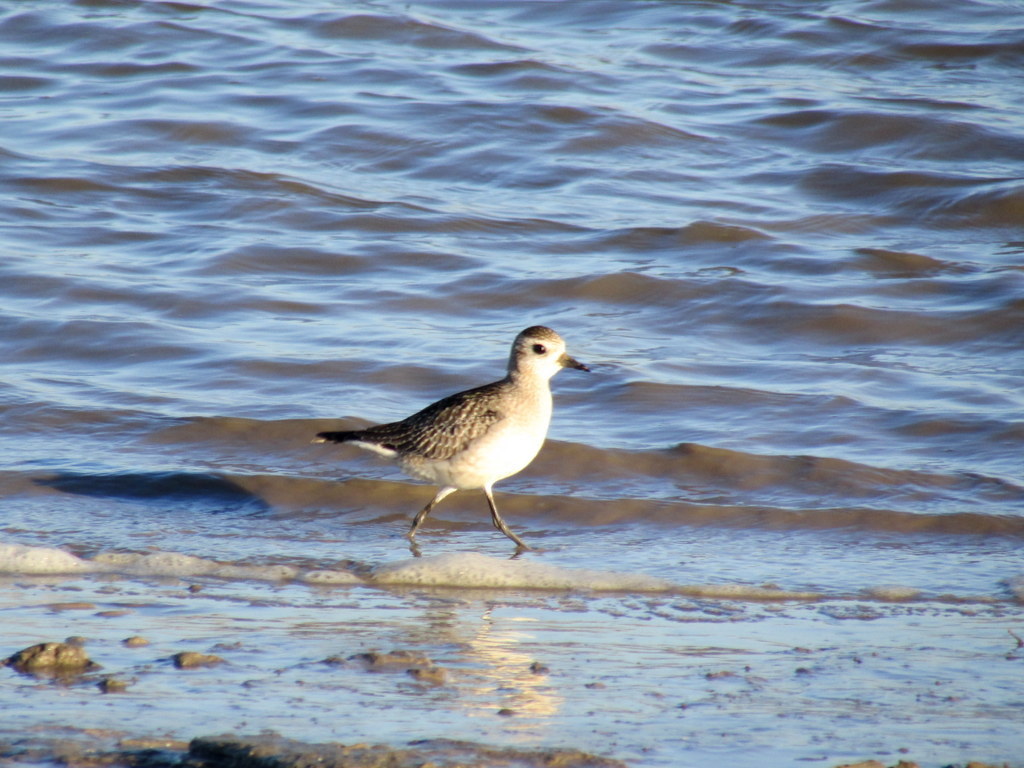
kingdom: Animalia
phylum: Chordata
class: Aves
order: Charadriiformes
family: Charadriidae
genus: Pluvialis
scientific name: Pluvialis dominica
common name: American golden plover
